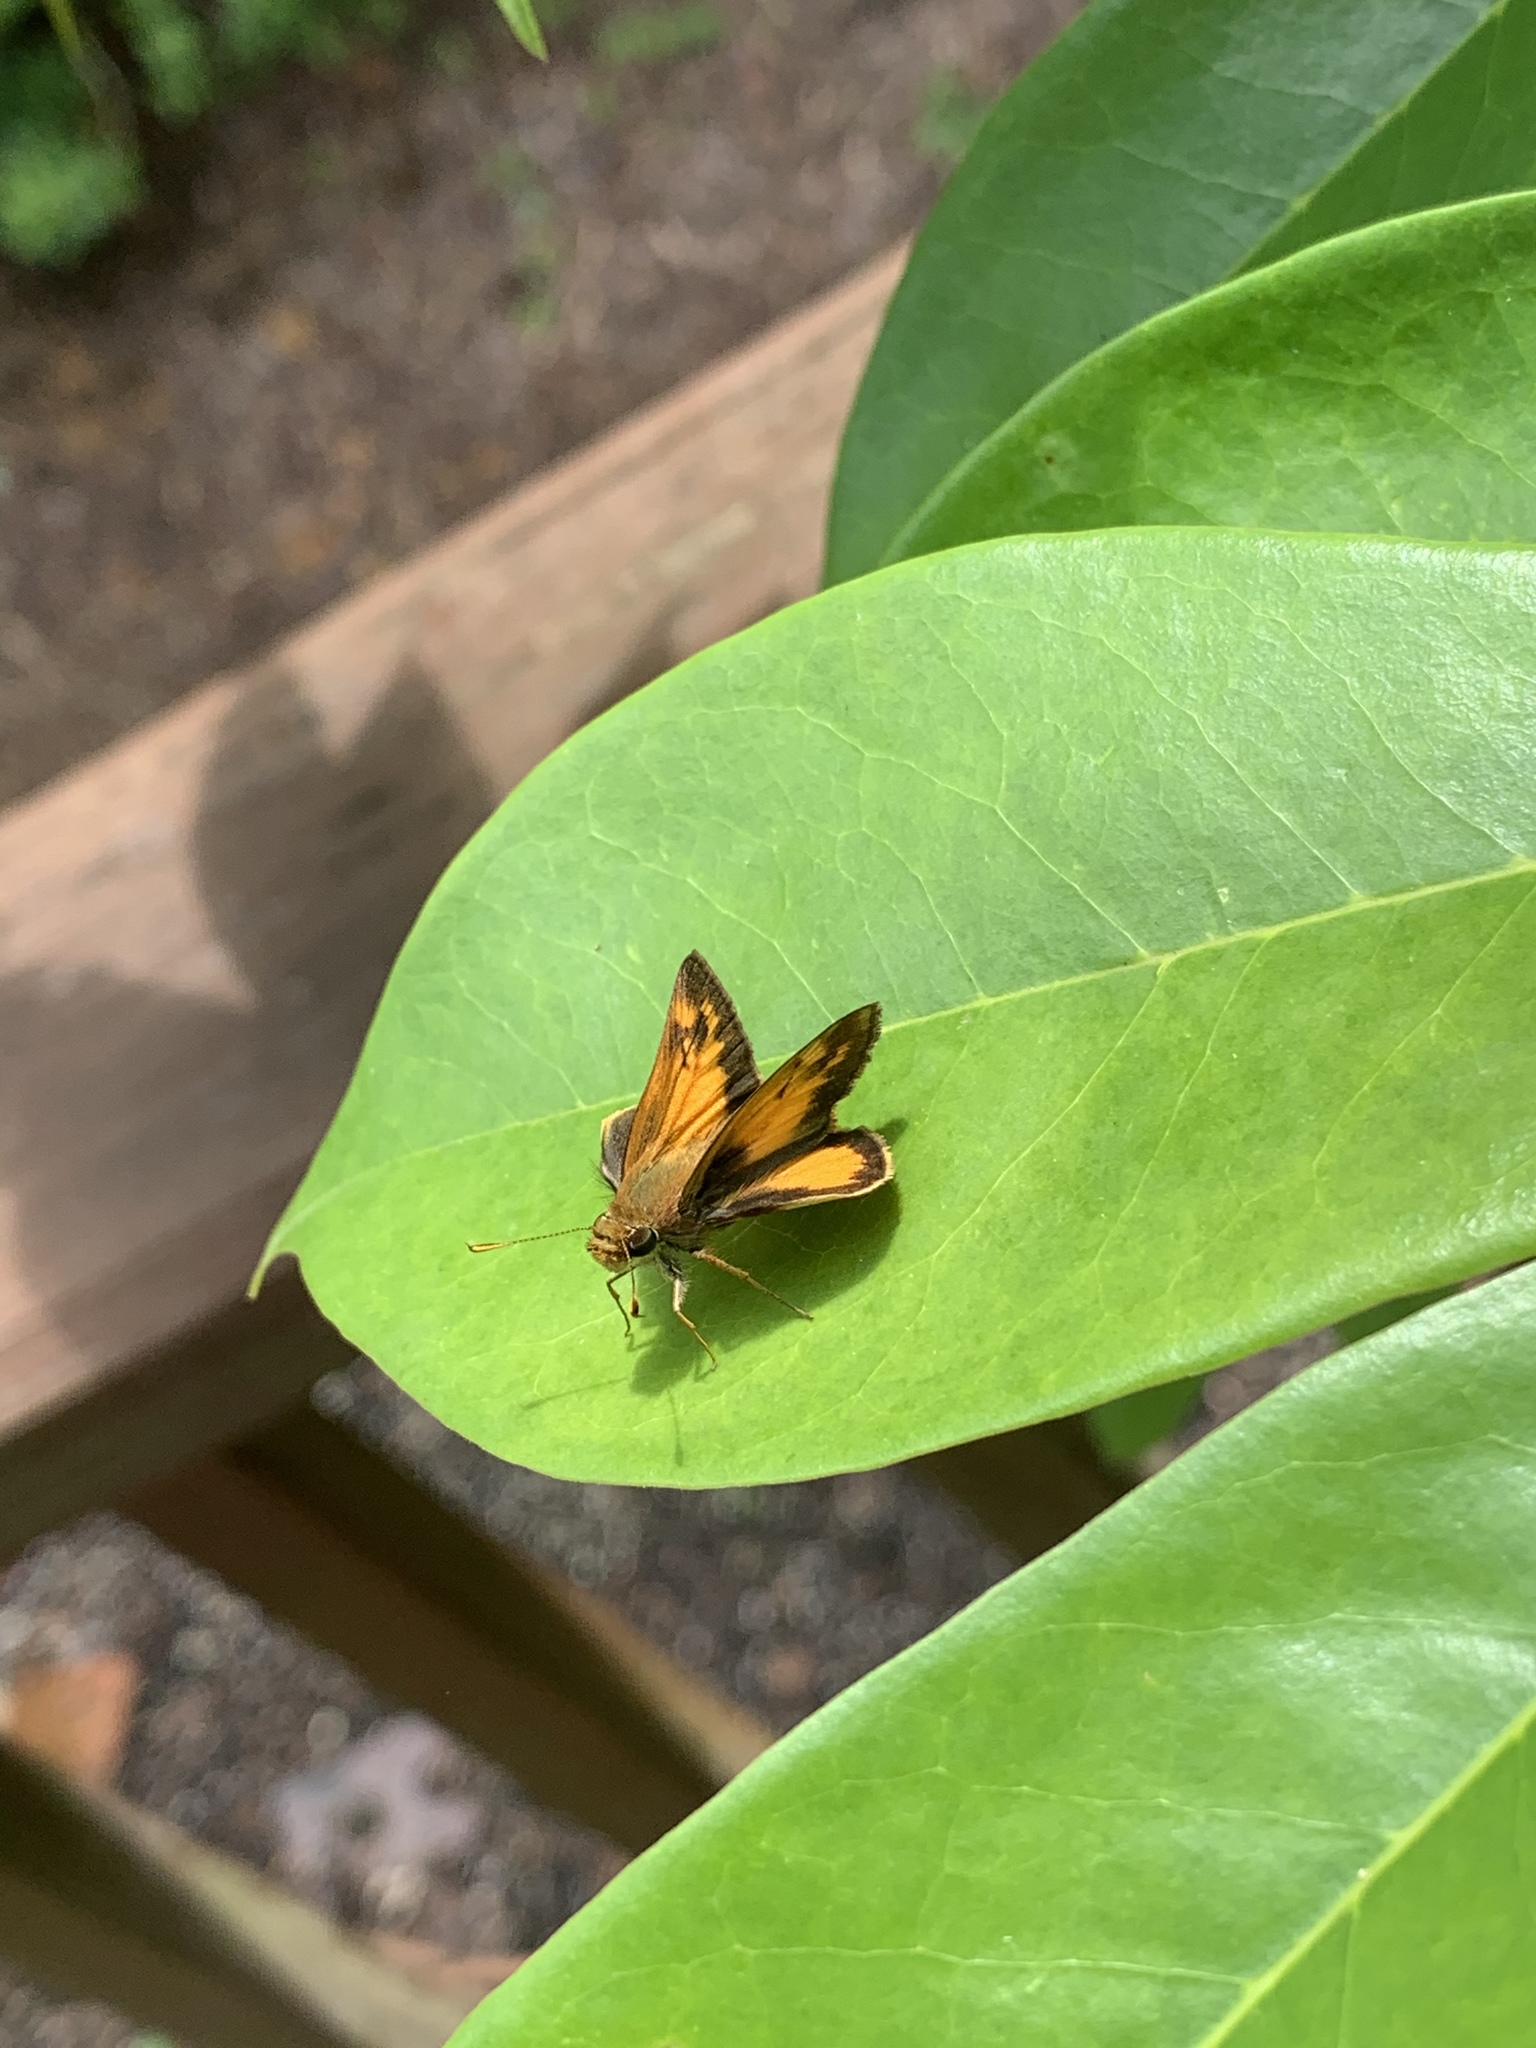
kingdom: Animalia
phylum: Arthropoda
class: Insecta
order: Lepidoptera
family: Hesperiidae
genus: Lon
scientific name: Lon zabulon
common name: Zabulon skipper
